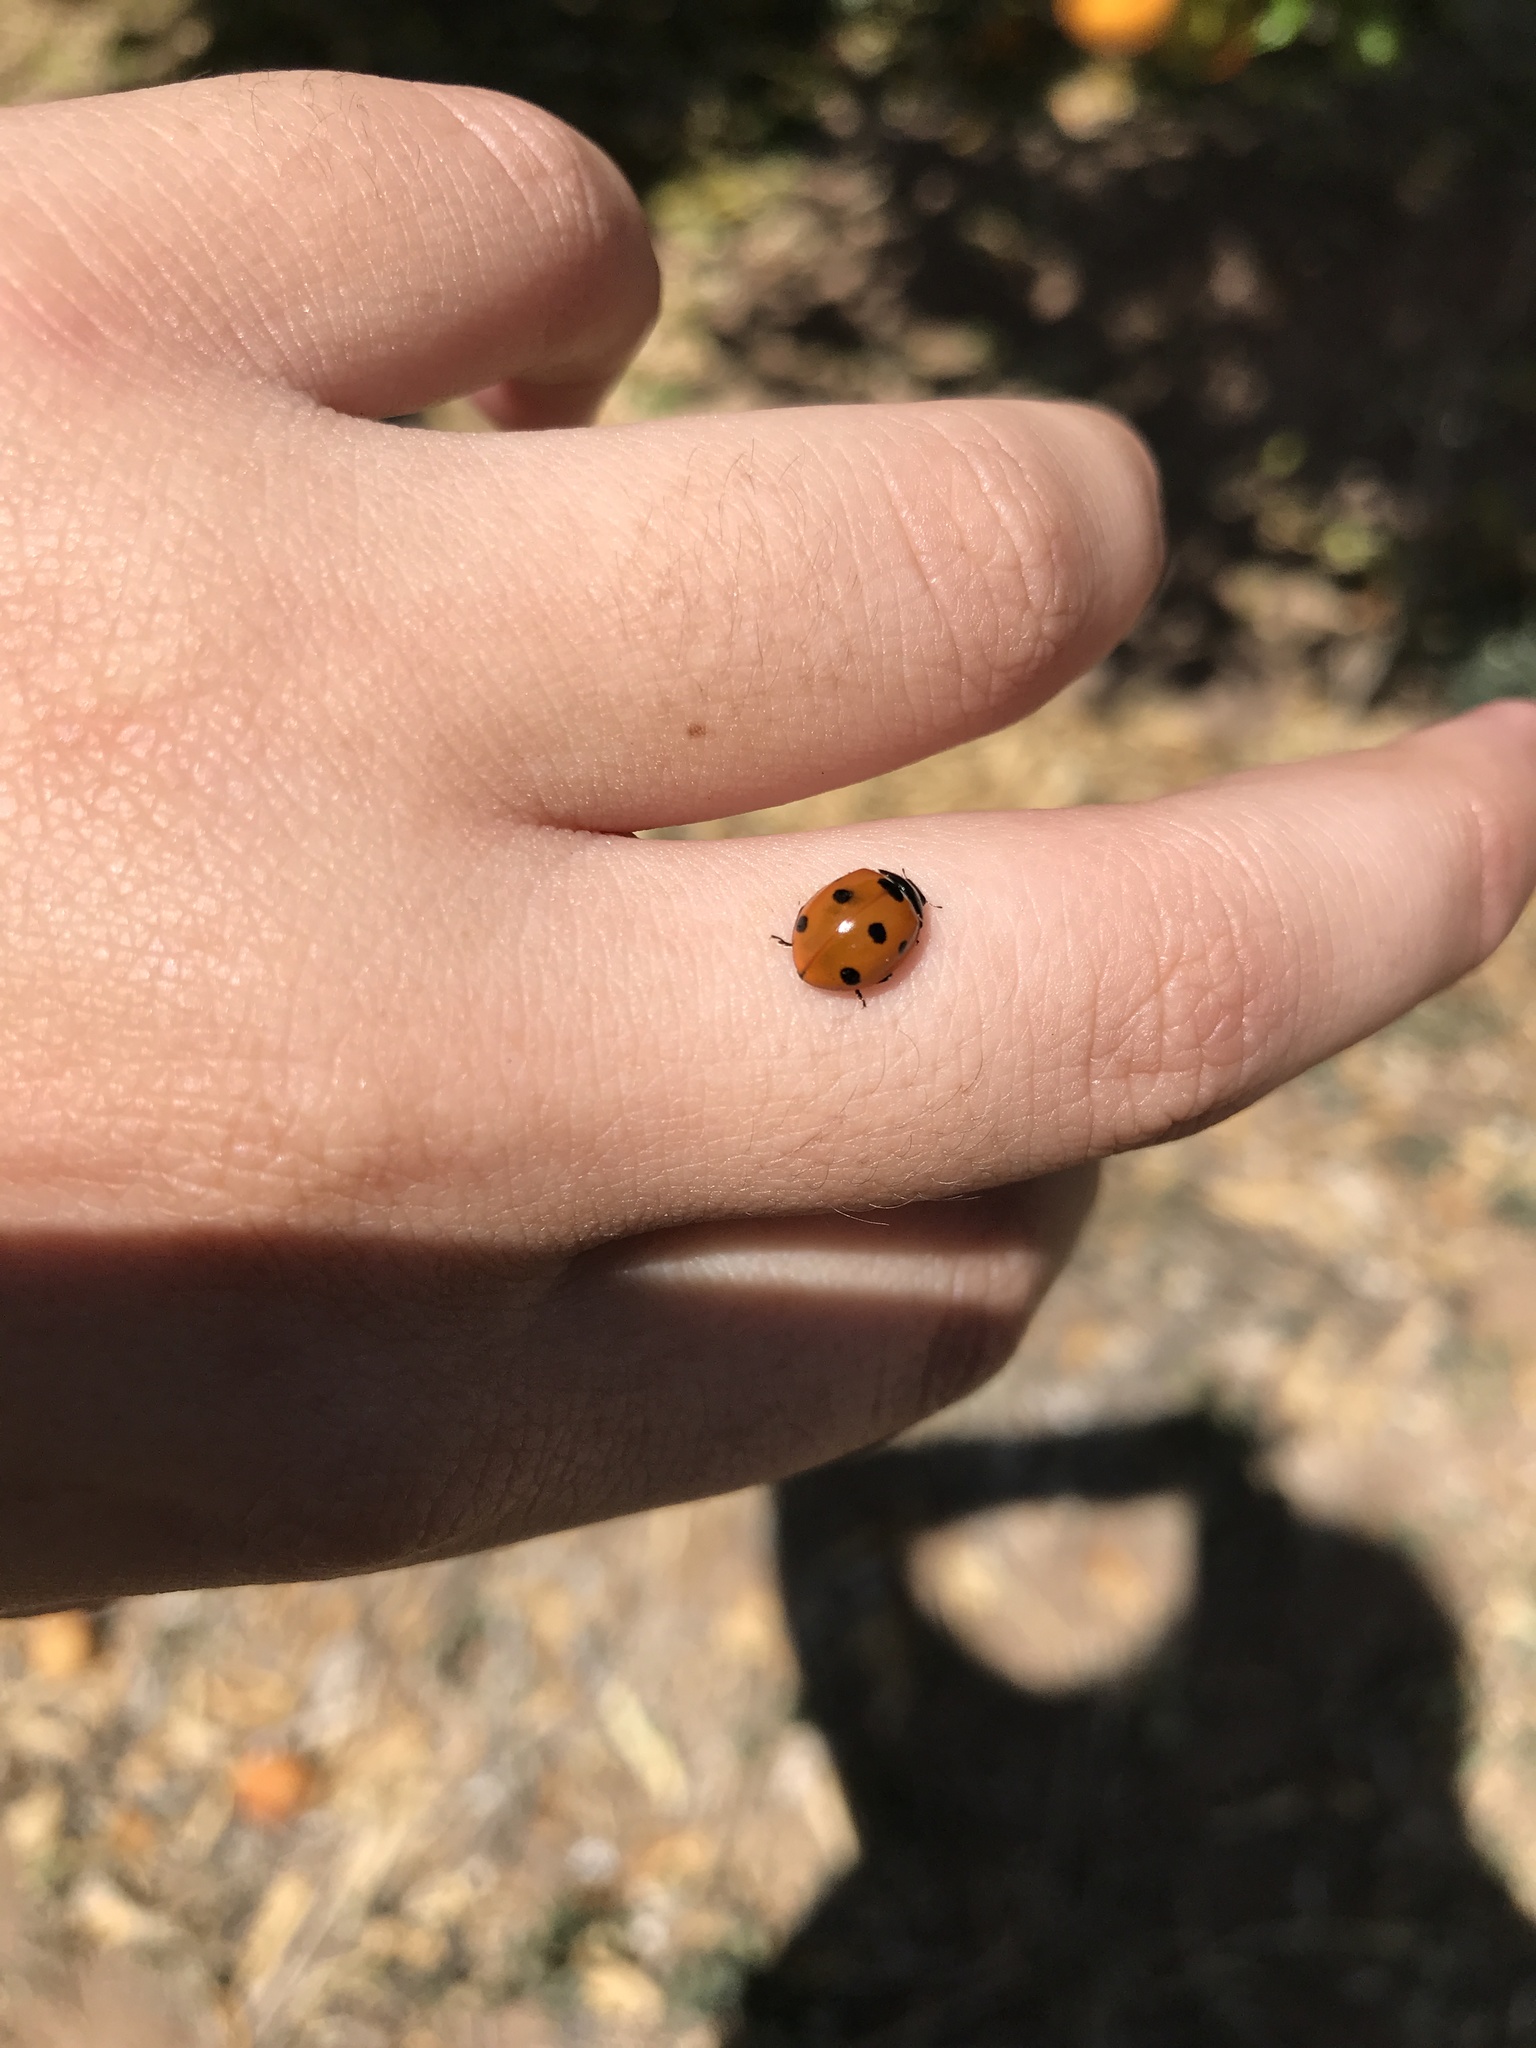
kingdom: Animalia
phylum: Arthropoda
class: Insecta
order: Coleoptera
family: Coccinellidae
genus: Coccinella
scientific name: Coccinella septempunctata
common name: Sevenspotted lady beetle
